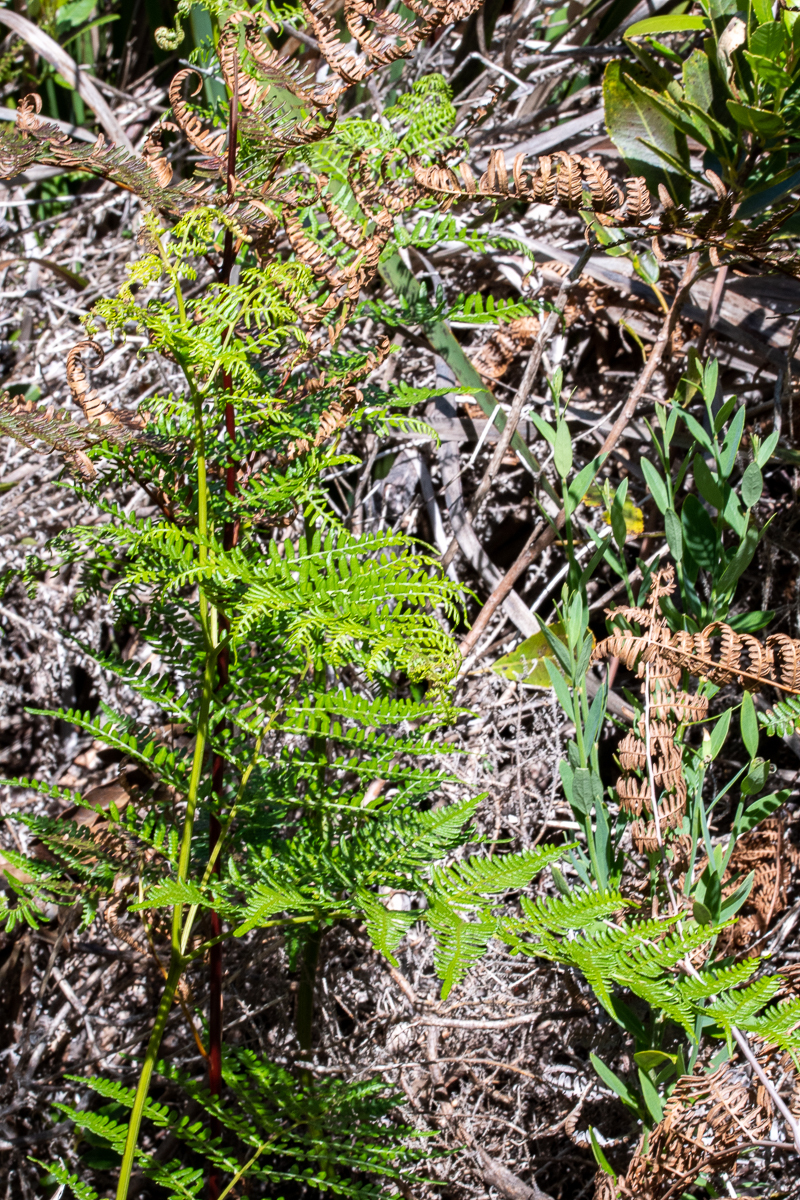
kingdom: Plantae
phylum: Tracheophyta
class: Polypodiopsida
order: Polypodiales
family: Dennstaedtiaceae
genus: Pteridium
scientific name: Pteridium aquilinum
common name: Bracken
